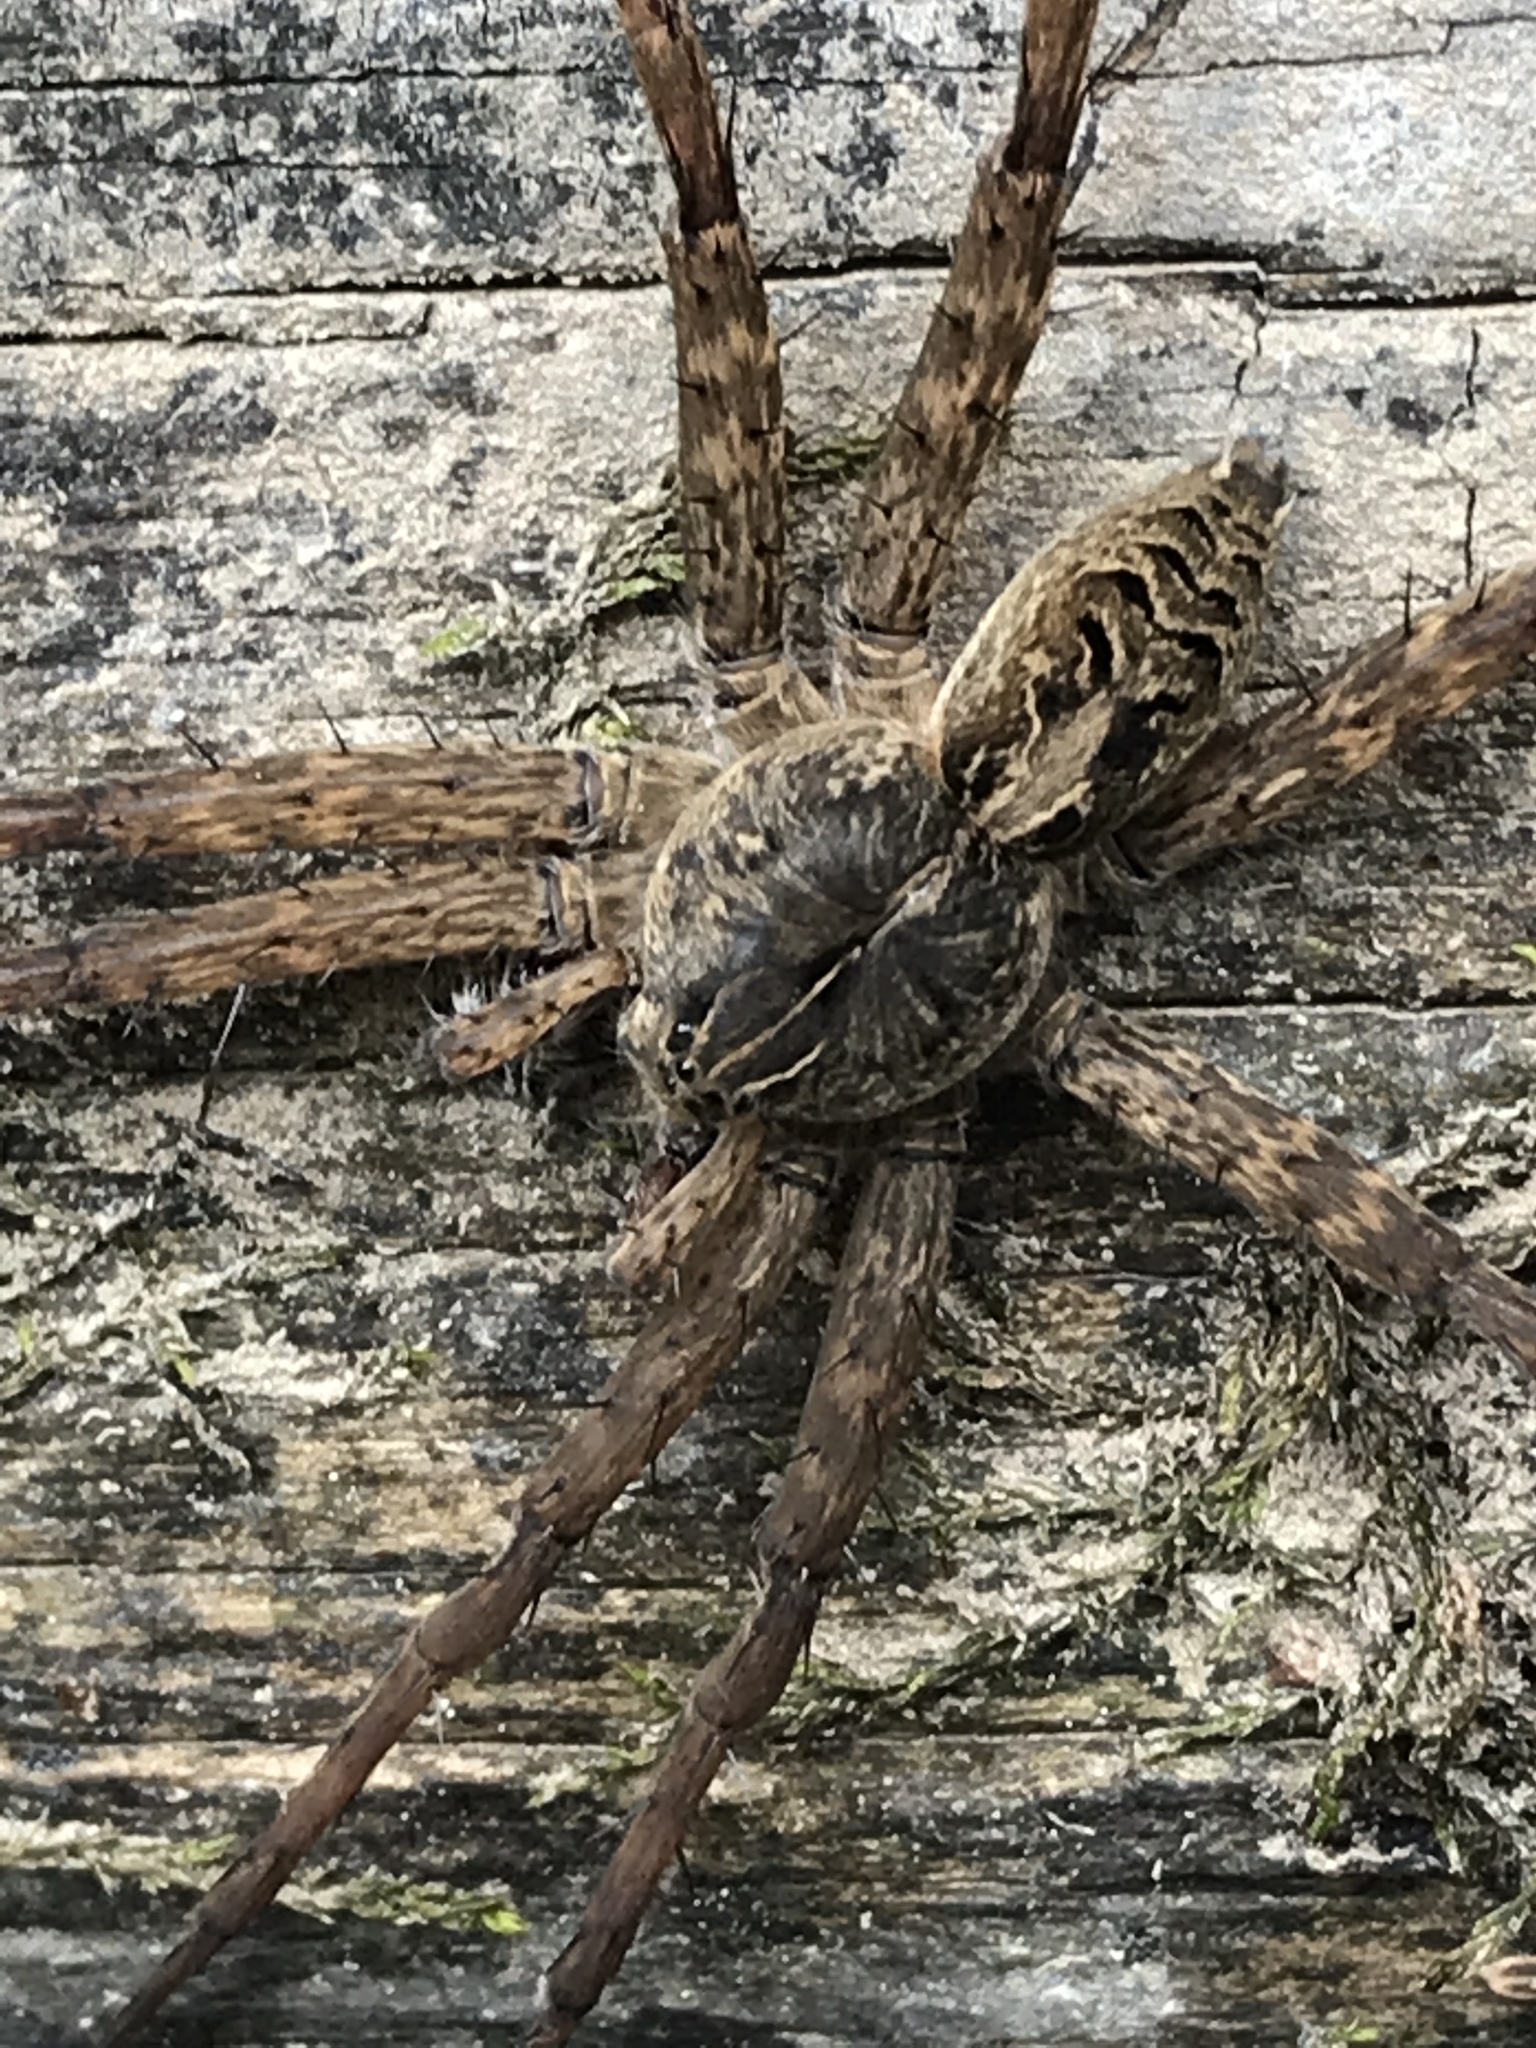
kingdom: Animalia
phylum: Arthropoda
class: Arachnida
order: Araneae
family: Pisauridae
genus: Dolomedes
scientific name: Dolomedes scriptus
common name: Striped fishing spider
